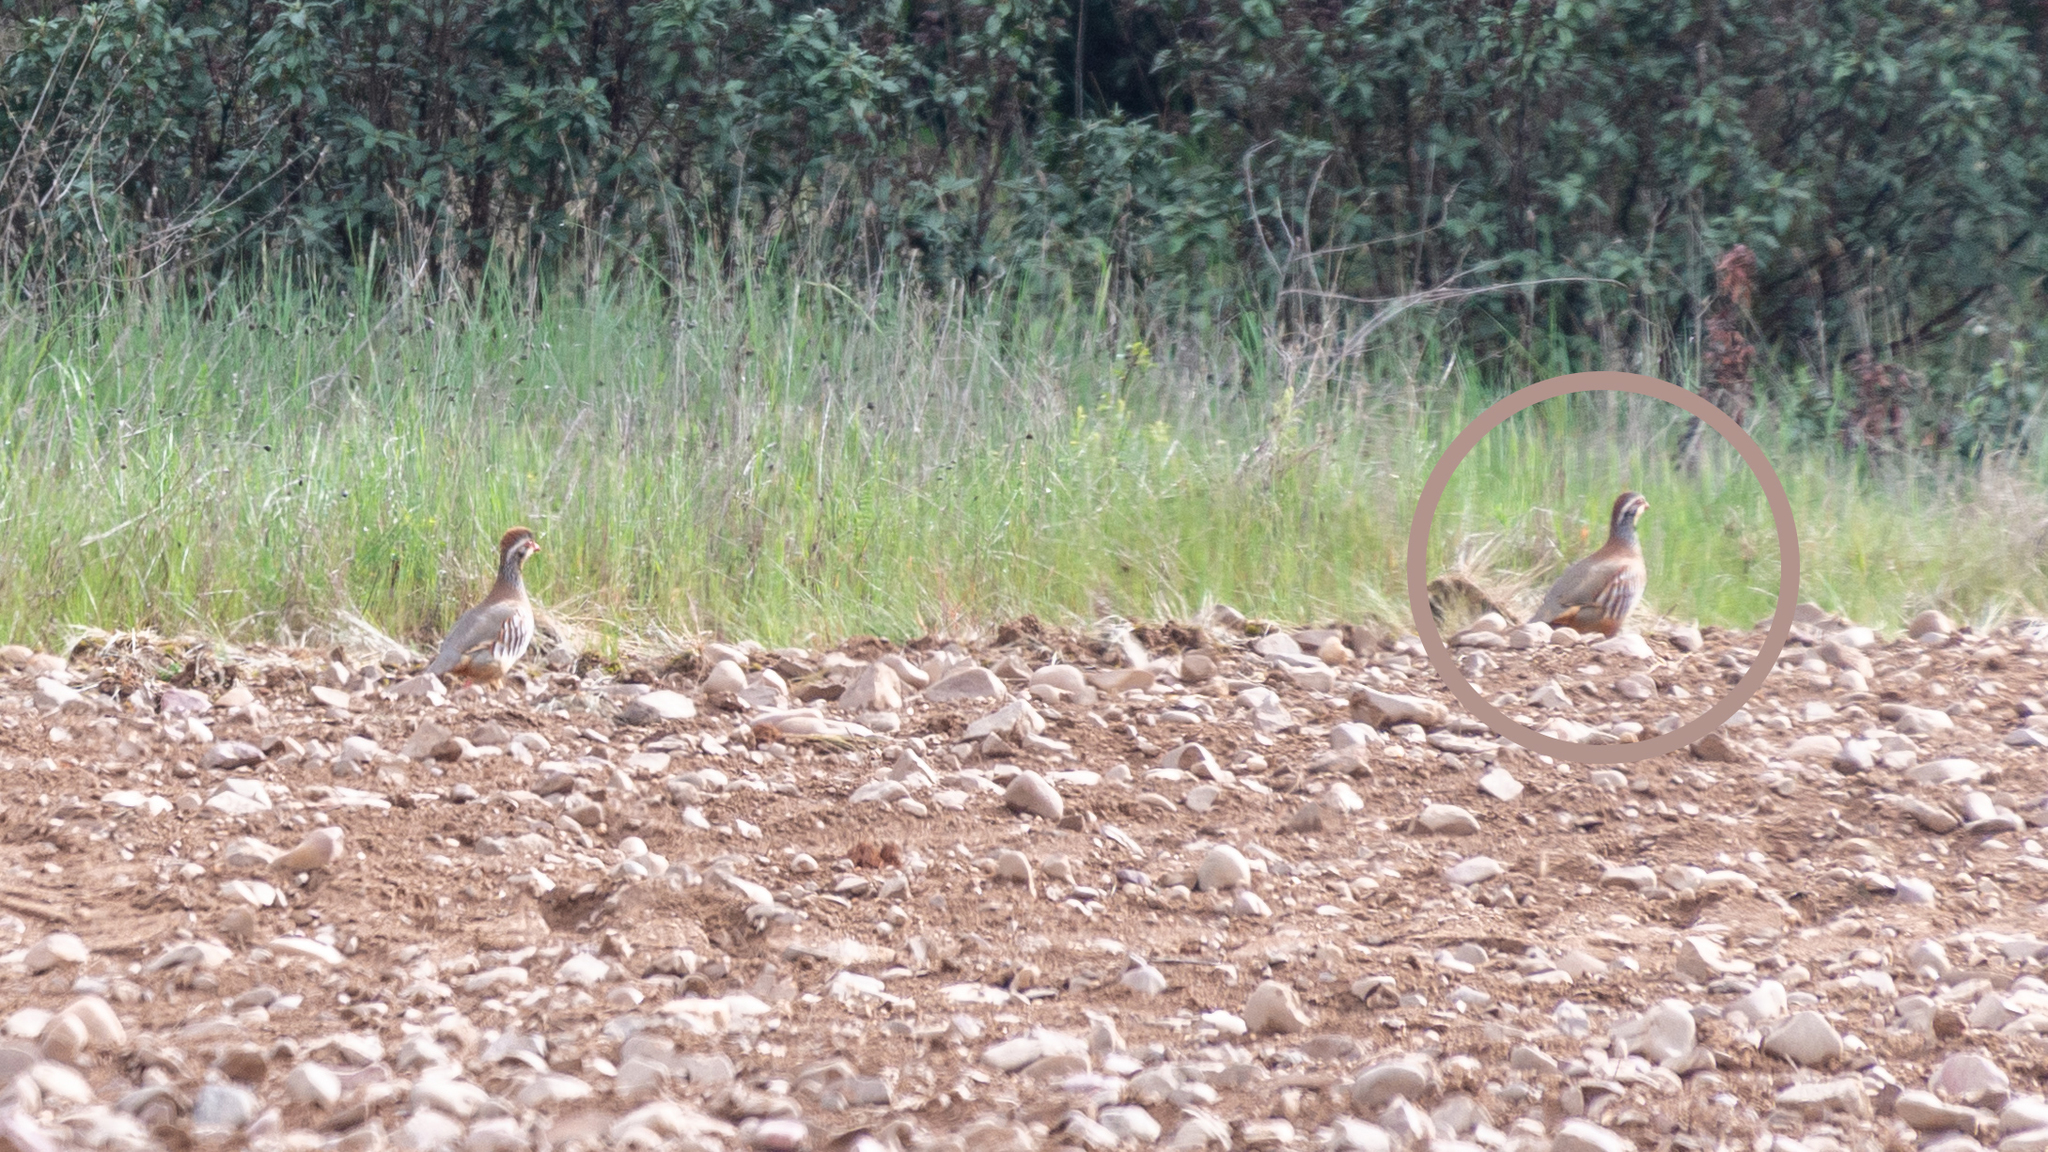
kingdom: Animalia
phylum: Chordata
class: Aves
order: Galliformes
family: Phasianidae
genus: Alectoris
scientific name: Alectoris rufa
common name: Red-legged partridge
